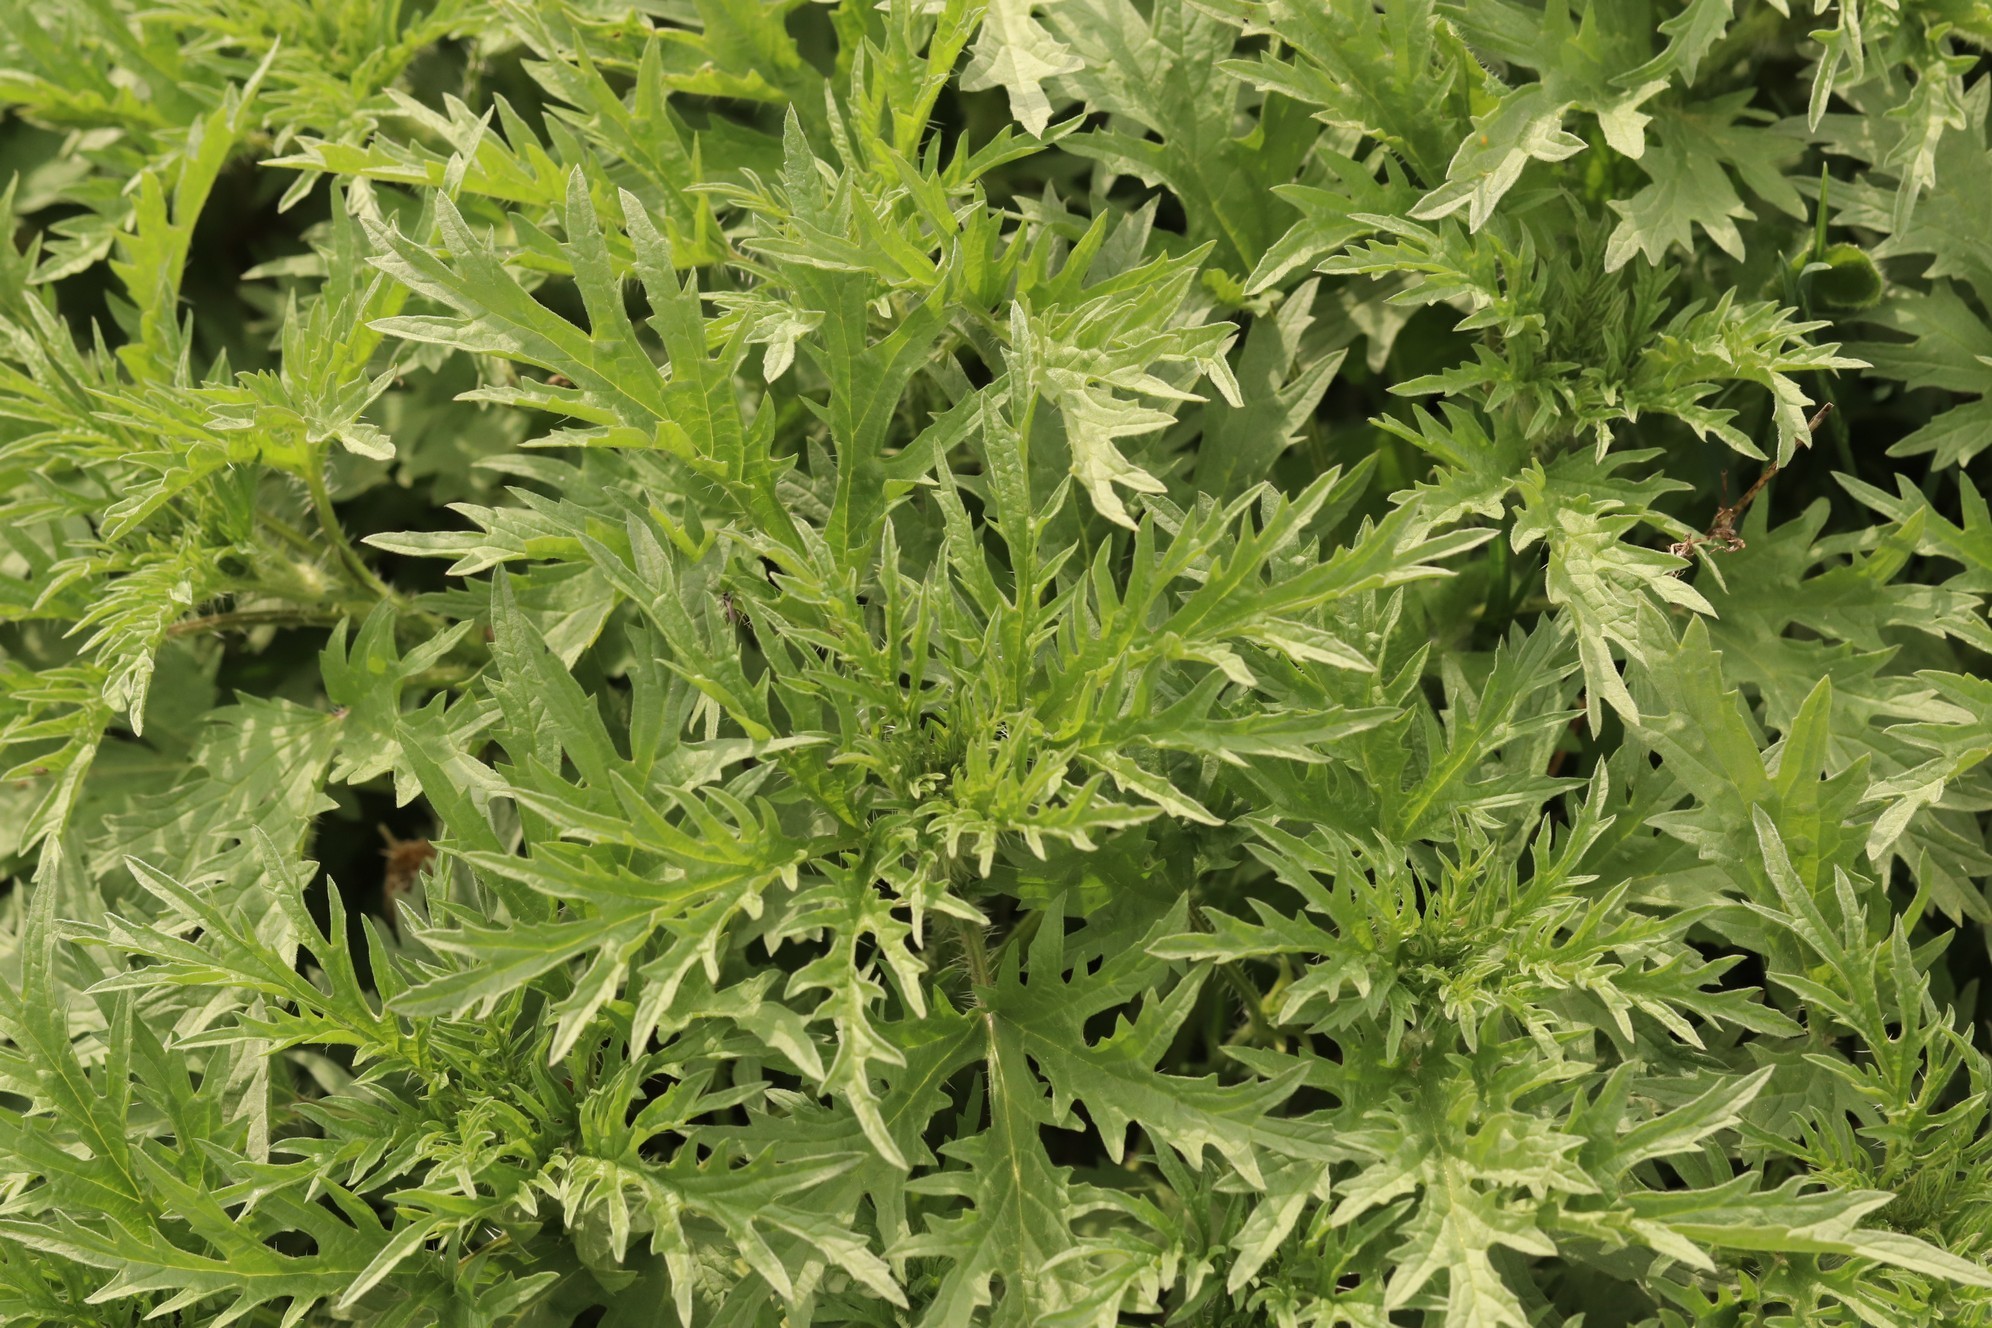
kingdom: Plantae
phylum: Tracheophyta
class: Magnoliopsida
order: Rosales
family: Urticaceae
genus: Urtica
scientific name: Urtica cannabina
